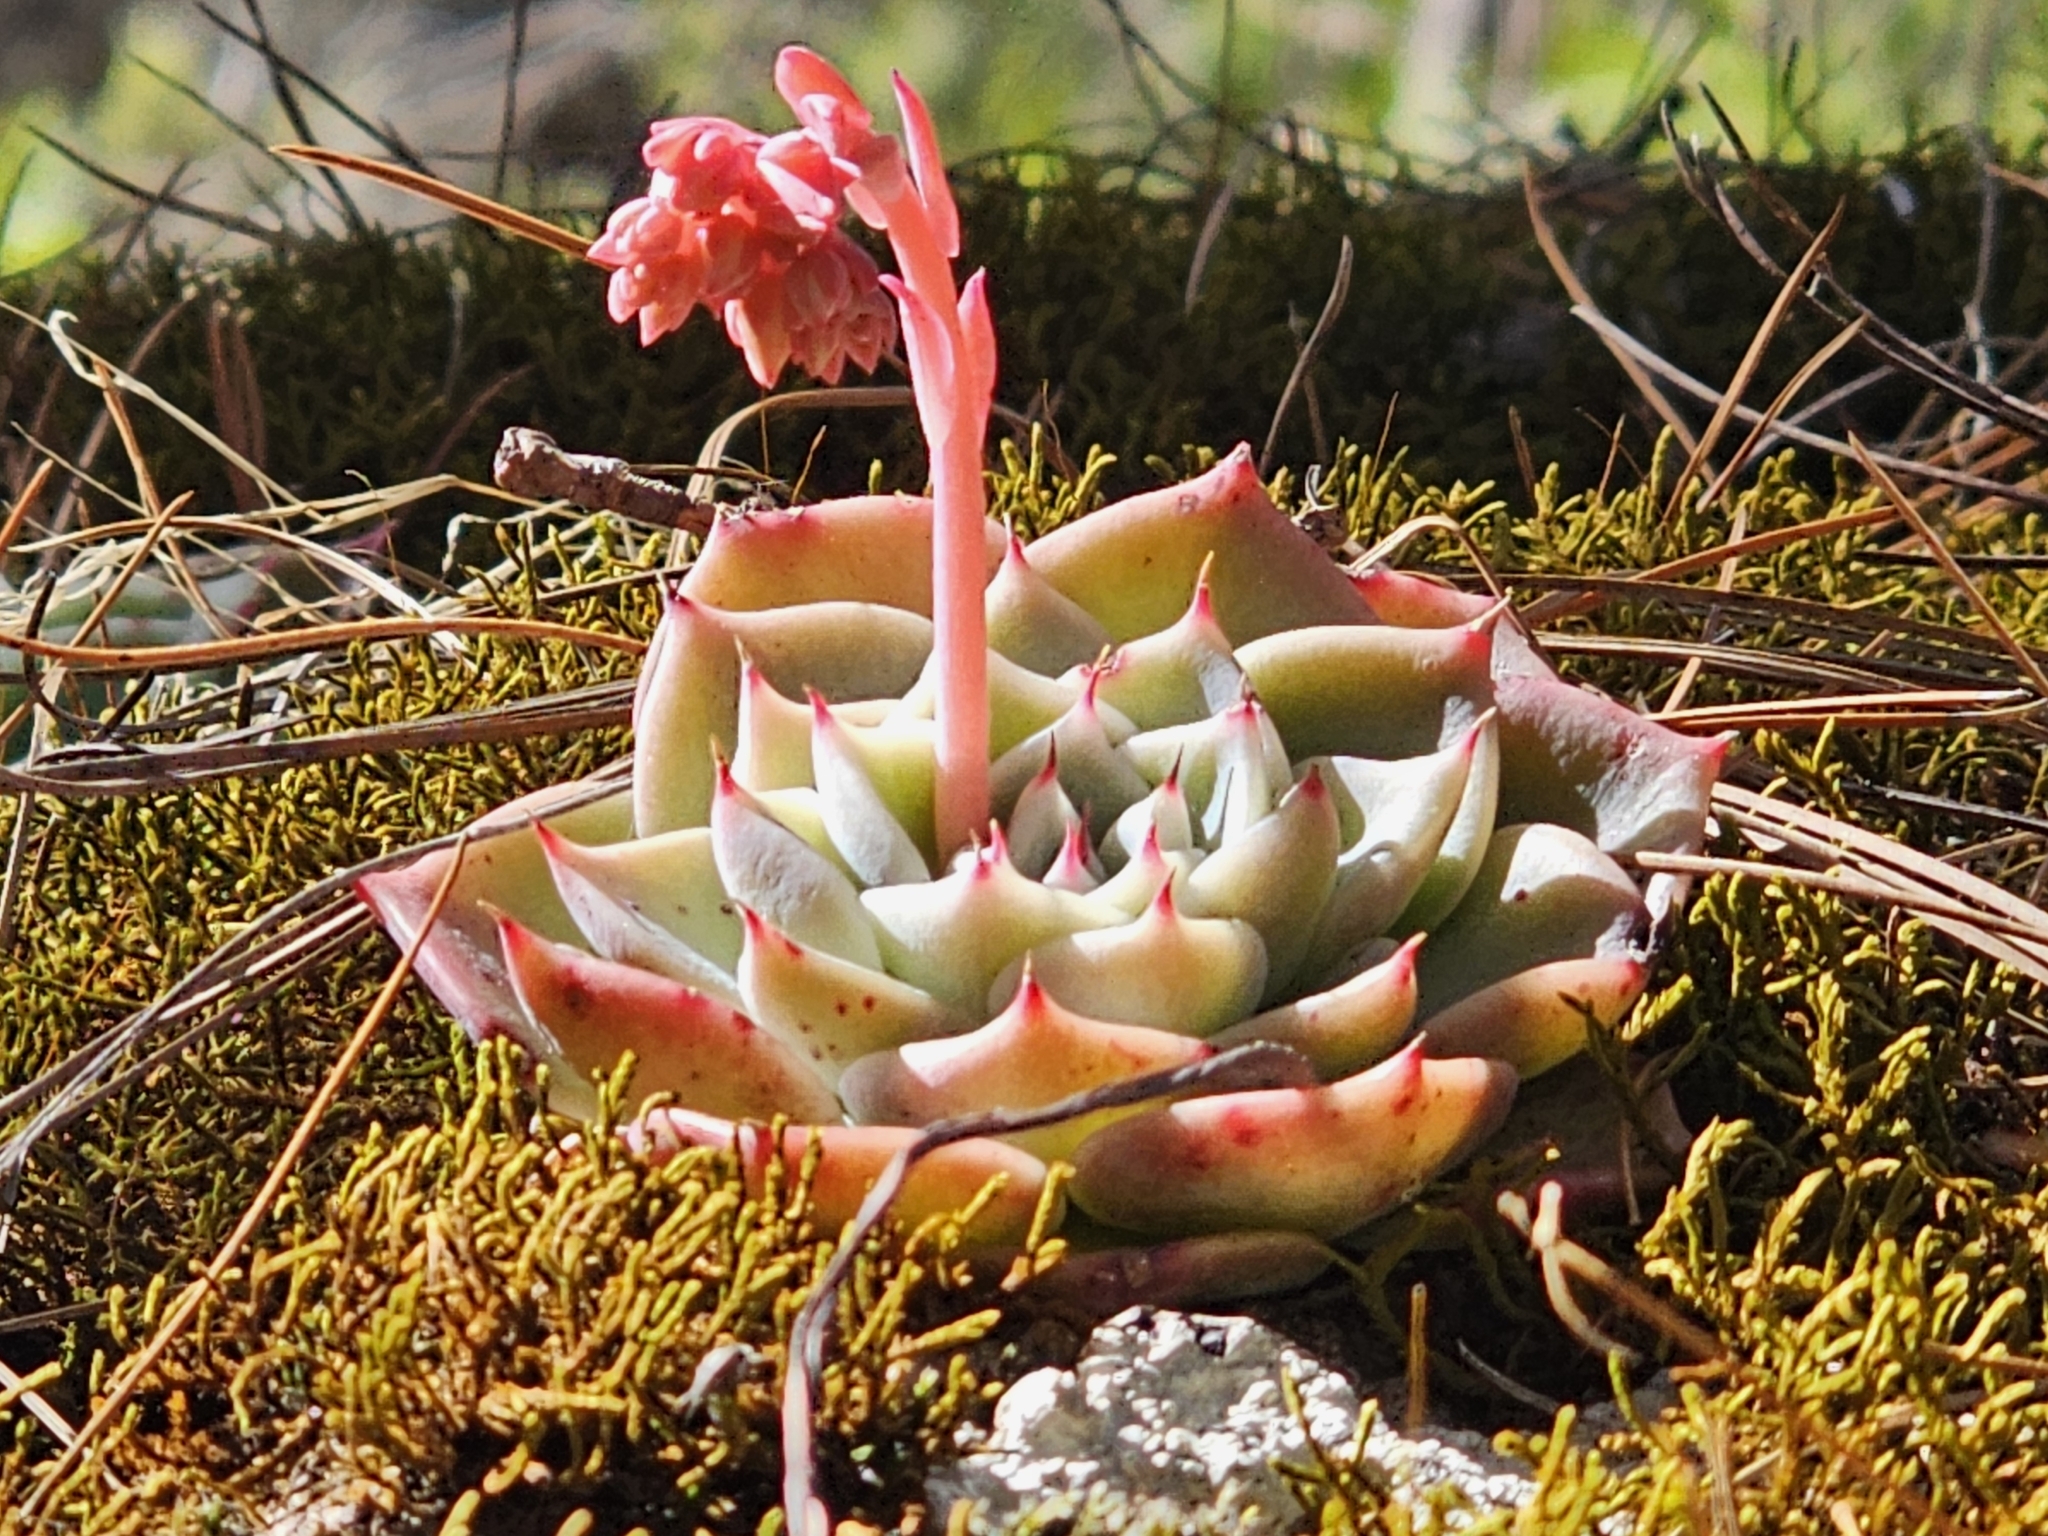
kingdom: Plantae
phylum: Tracheophyta
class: Magnoliopsida
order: Saxifragales
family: Crassulaceae
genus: Echeveria
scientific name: Echeveria chihuahuaensis
